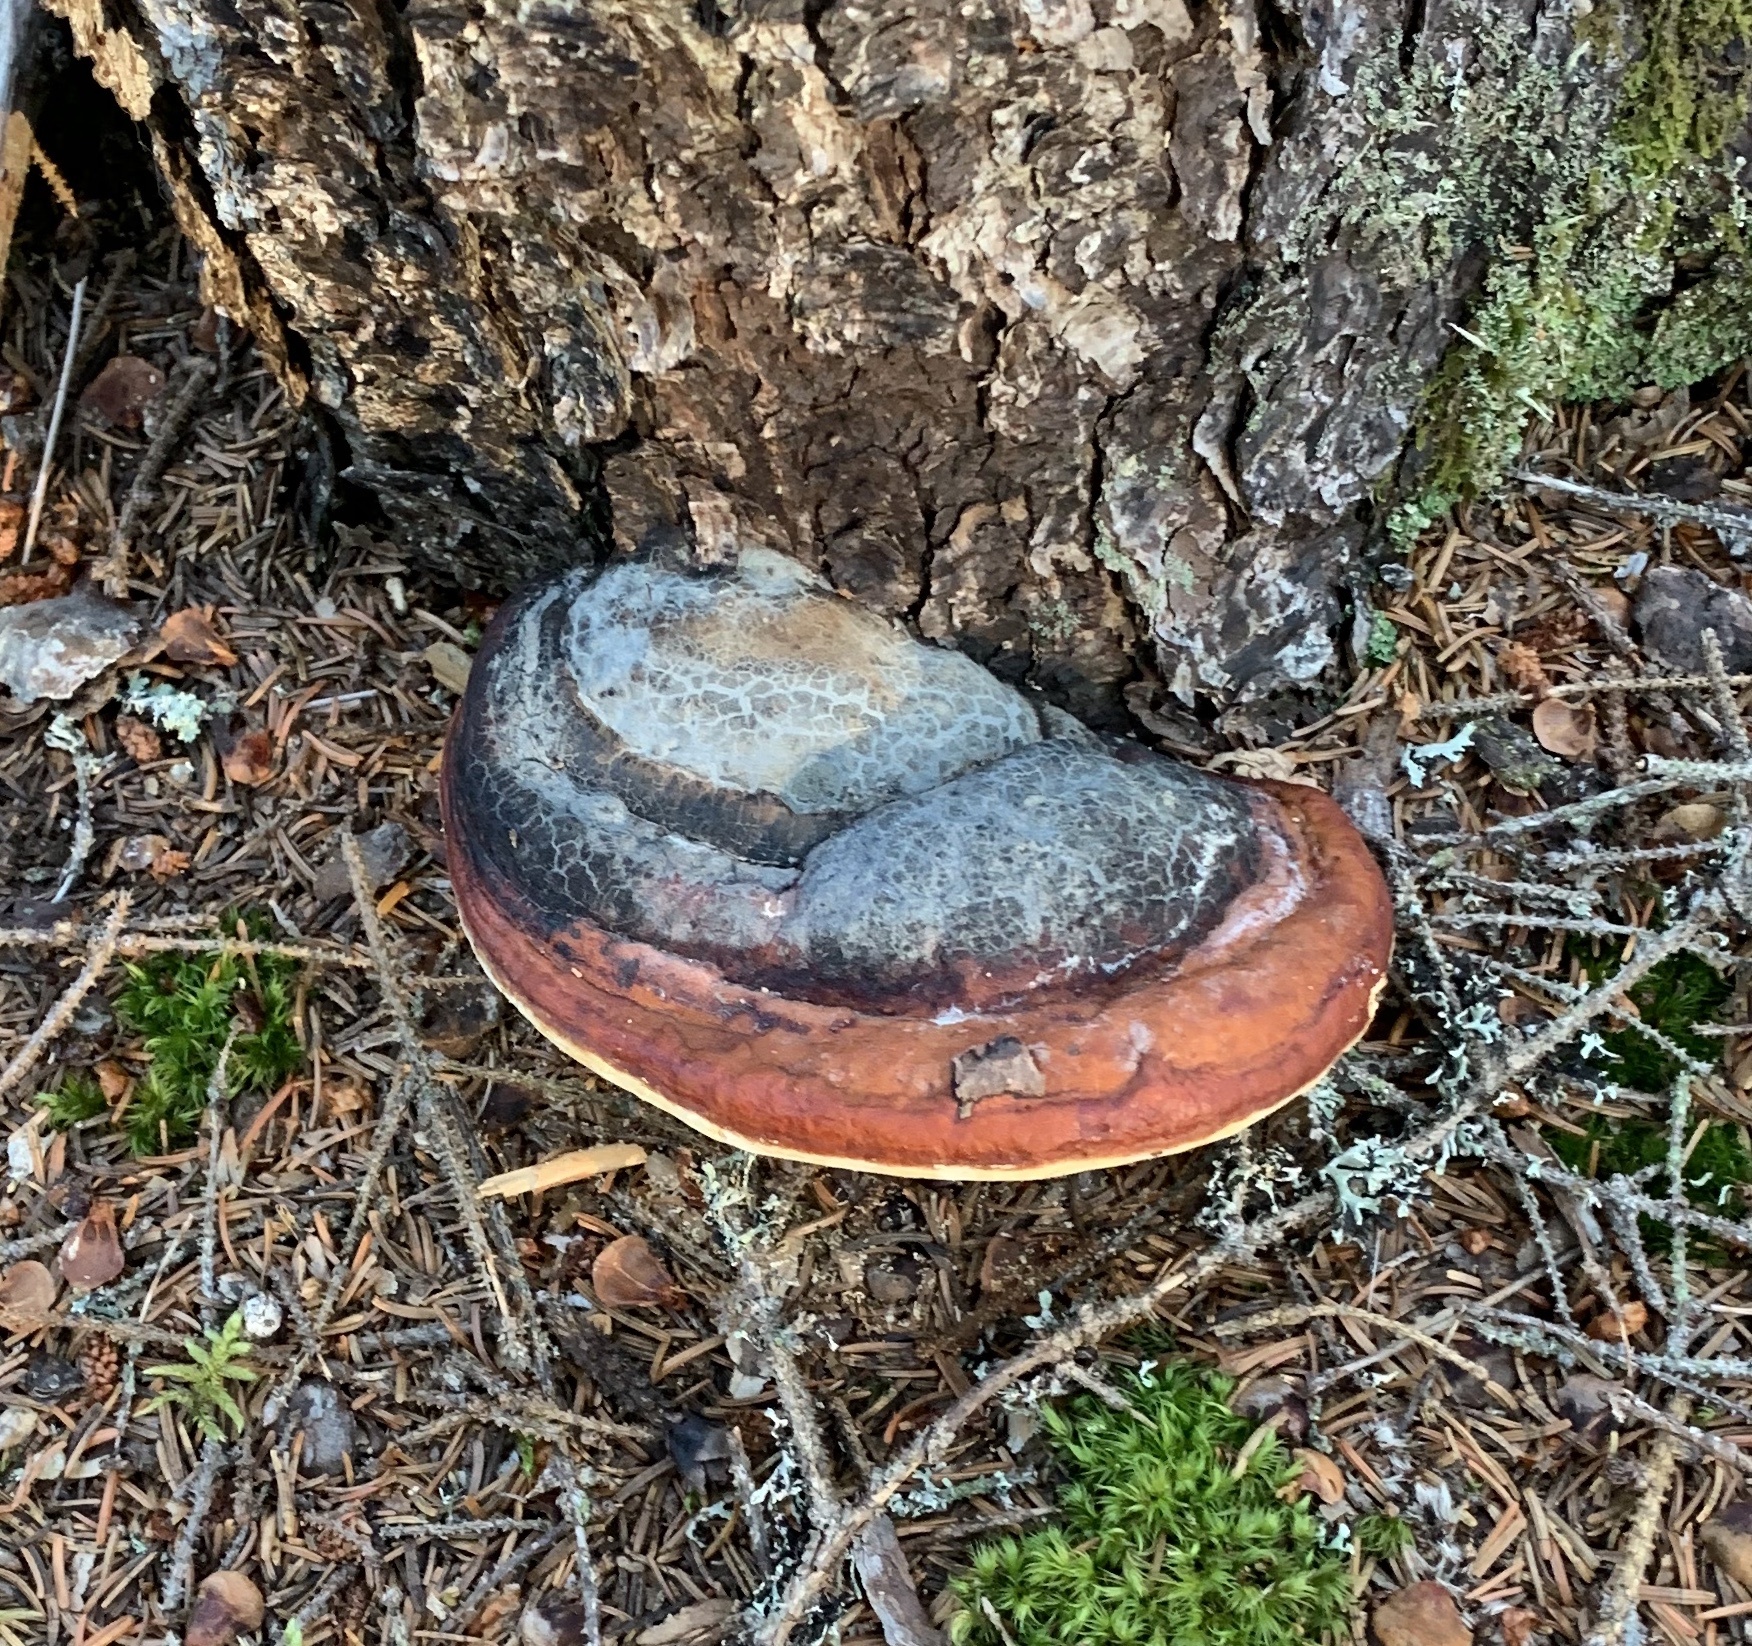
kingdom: Fungi
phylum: Basidiomycota
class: Agaricomycetes
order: Polyporales
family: Fomitopsidaceae
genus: Fomitopsis
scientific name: Fomitopsis mounceae
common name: Northern red belt
